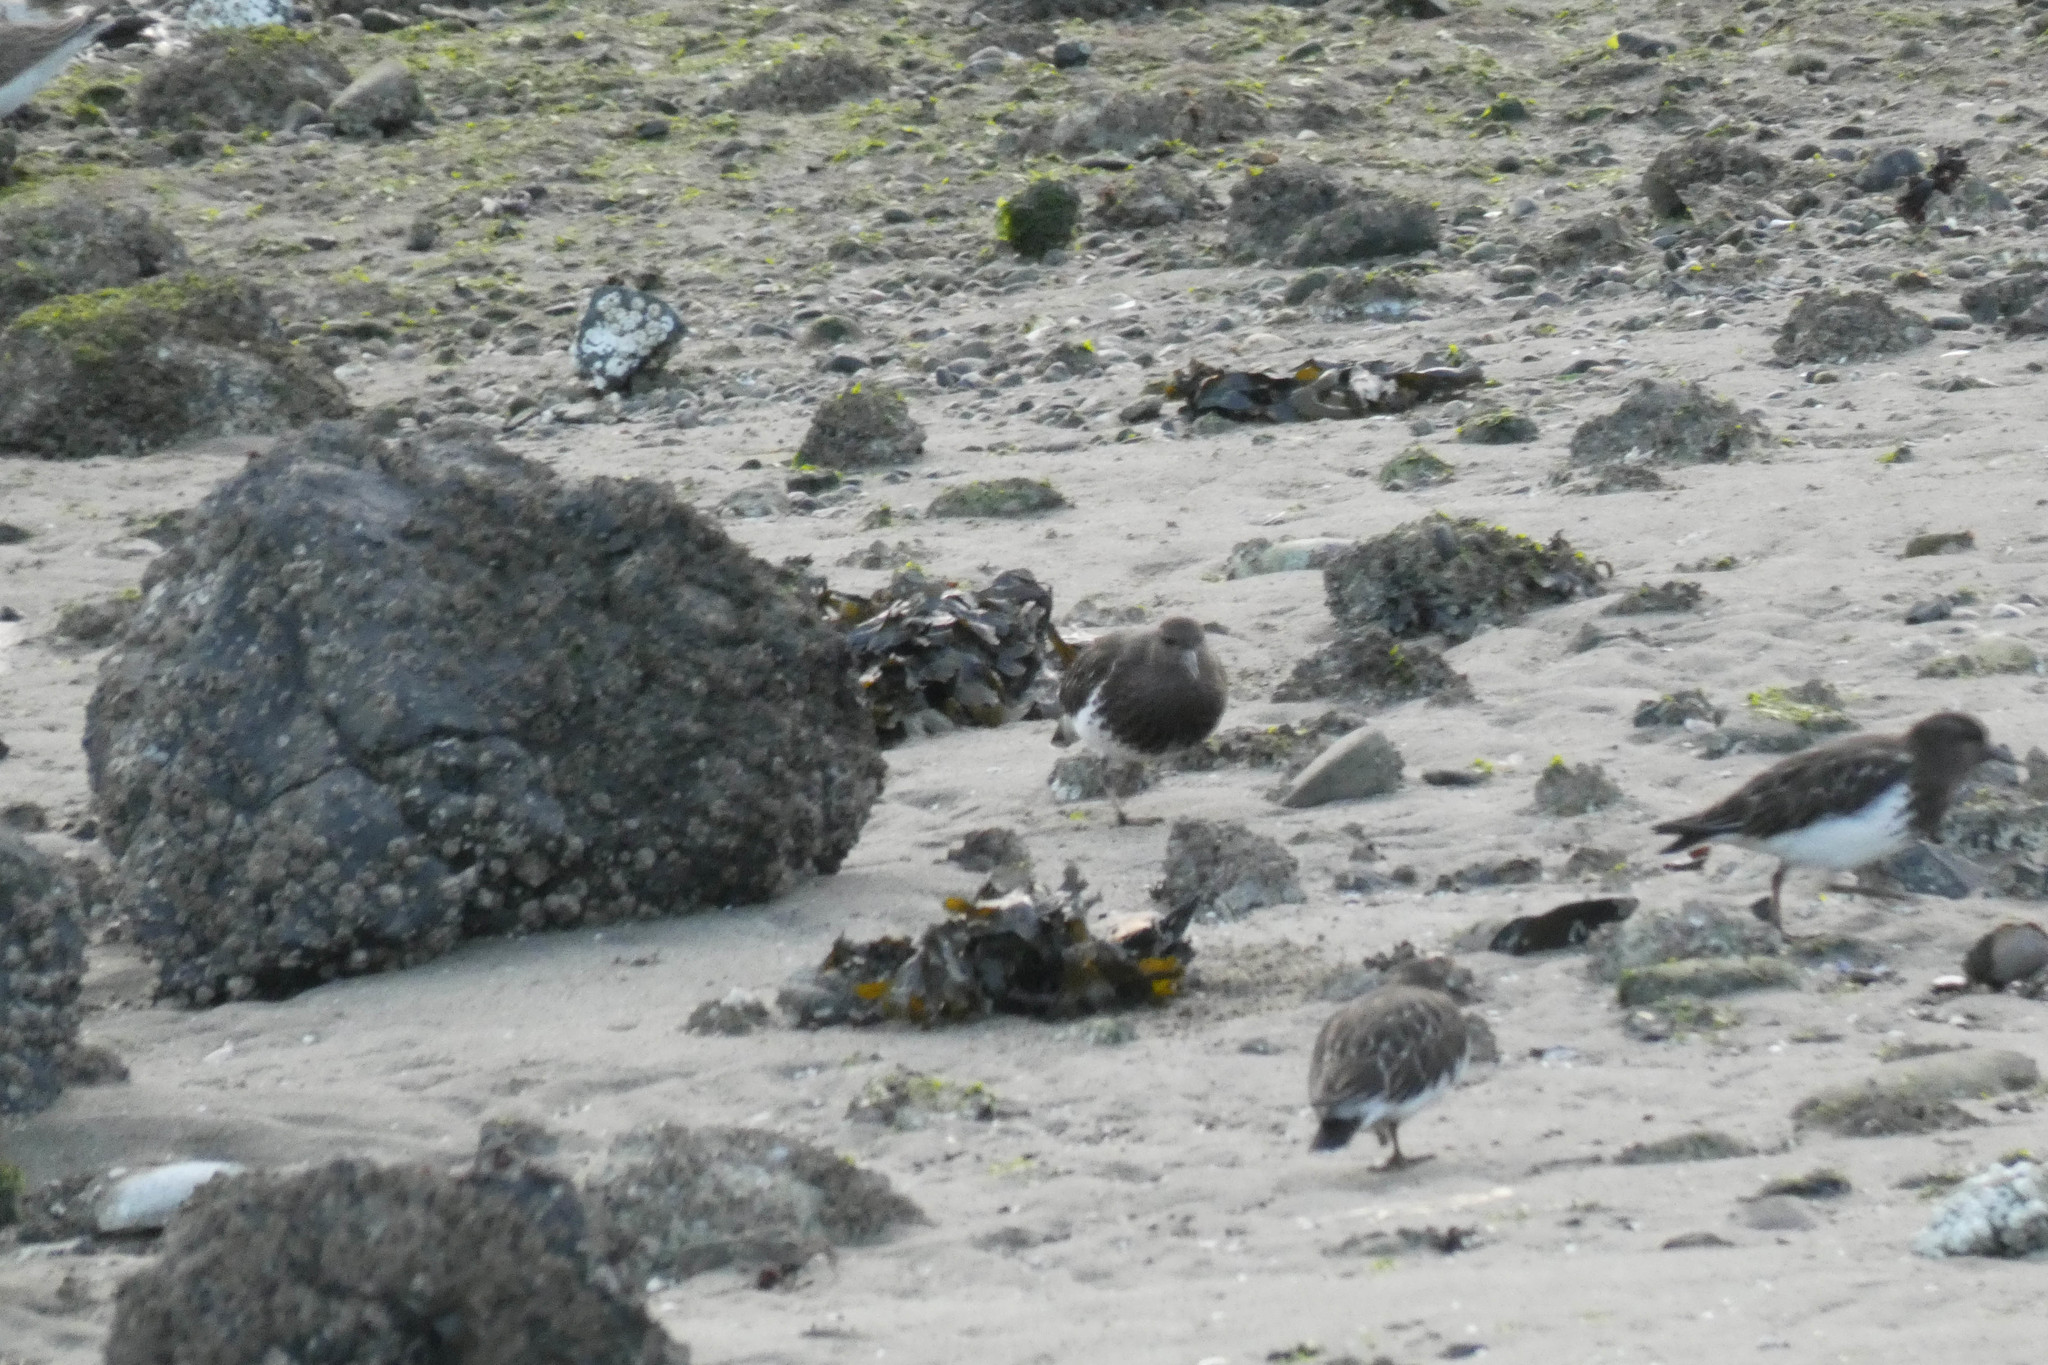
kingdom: Animalia
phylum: Chordata
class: Aves
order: Charadriiformes
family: Scolopacidae
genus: Arenaria
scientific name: Arenaria melanocephala
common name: Black turnstone
